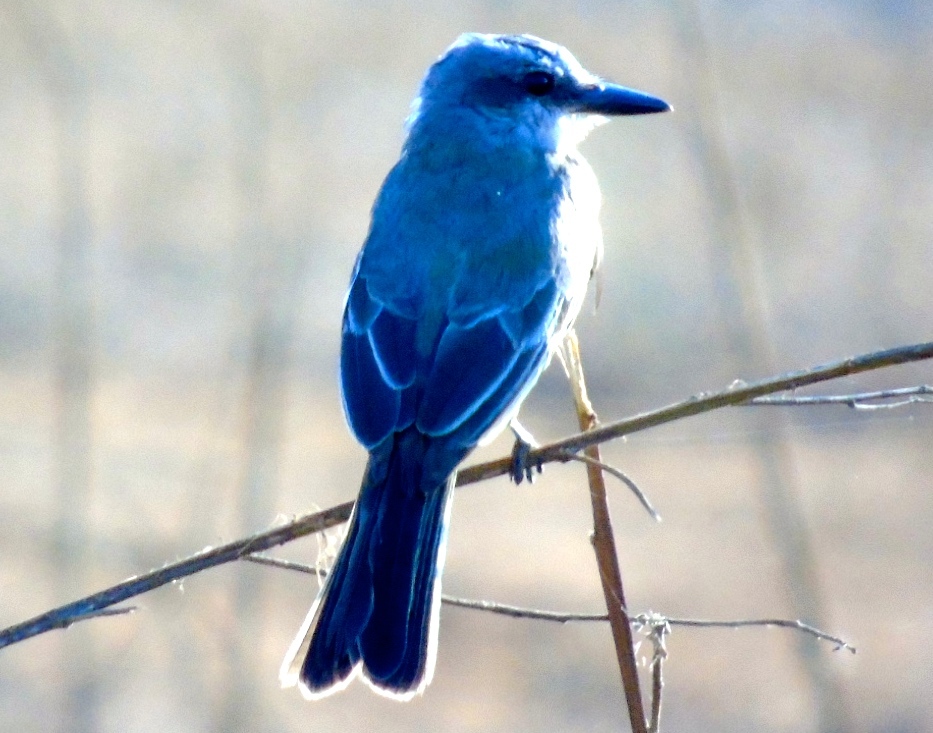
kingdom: Animalia
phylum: Chordata
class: Aves
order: Passeriformes
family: Tyrannidae
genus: Tyrannus
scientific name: Tyrannus melancholicus
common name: Tropical kingbird
